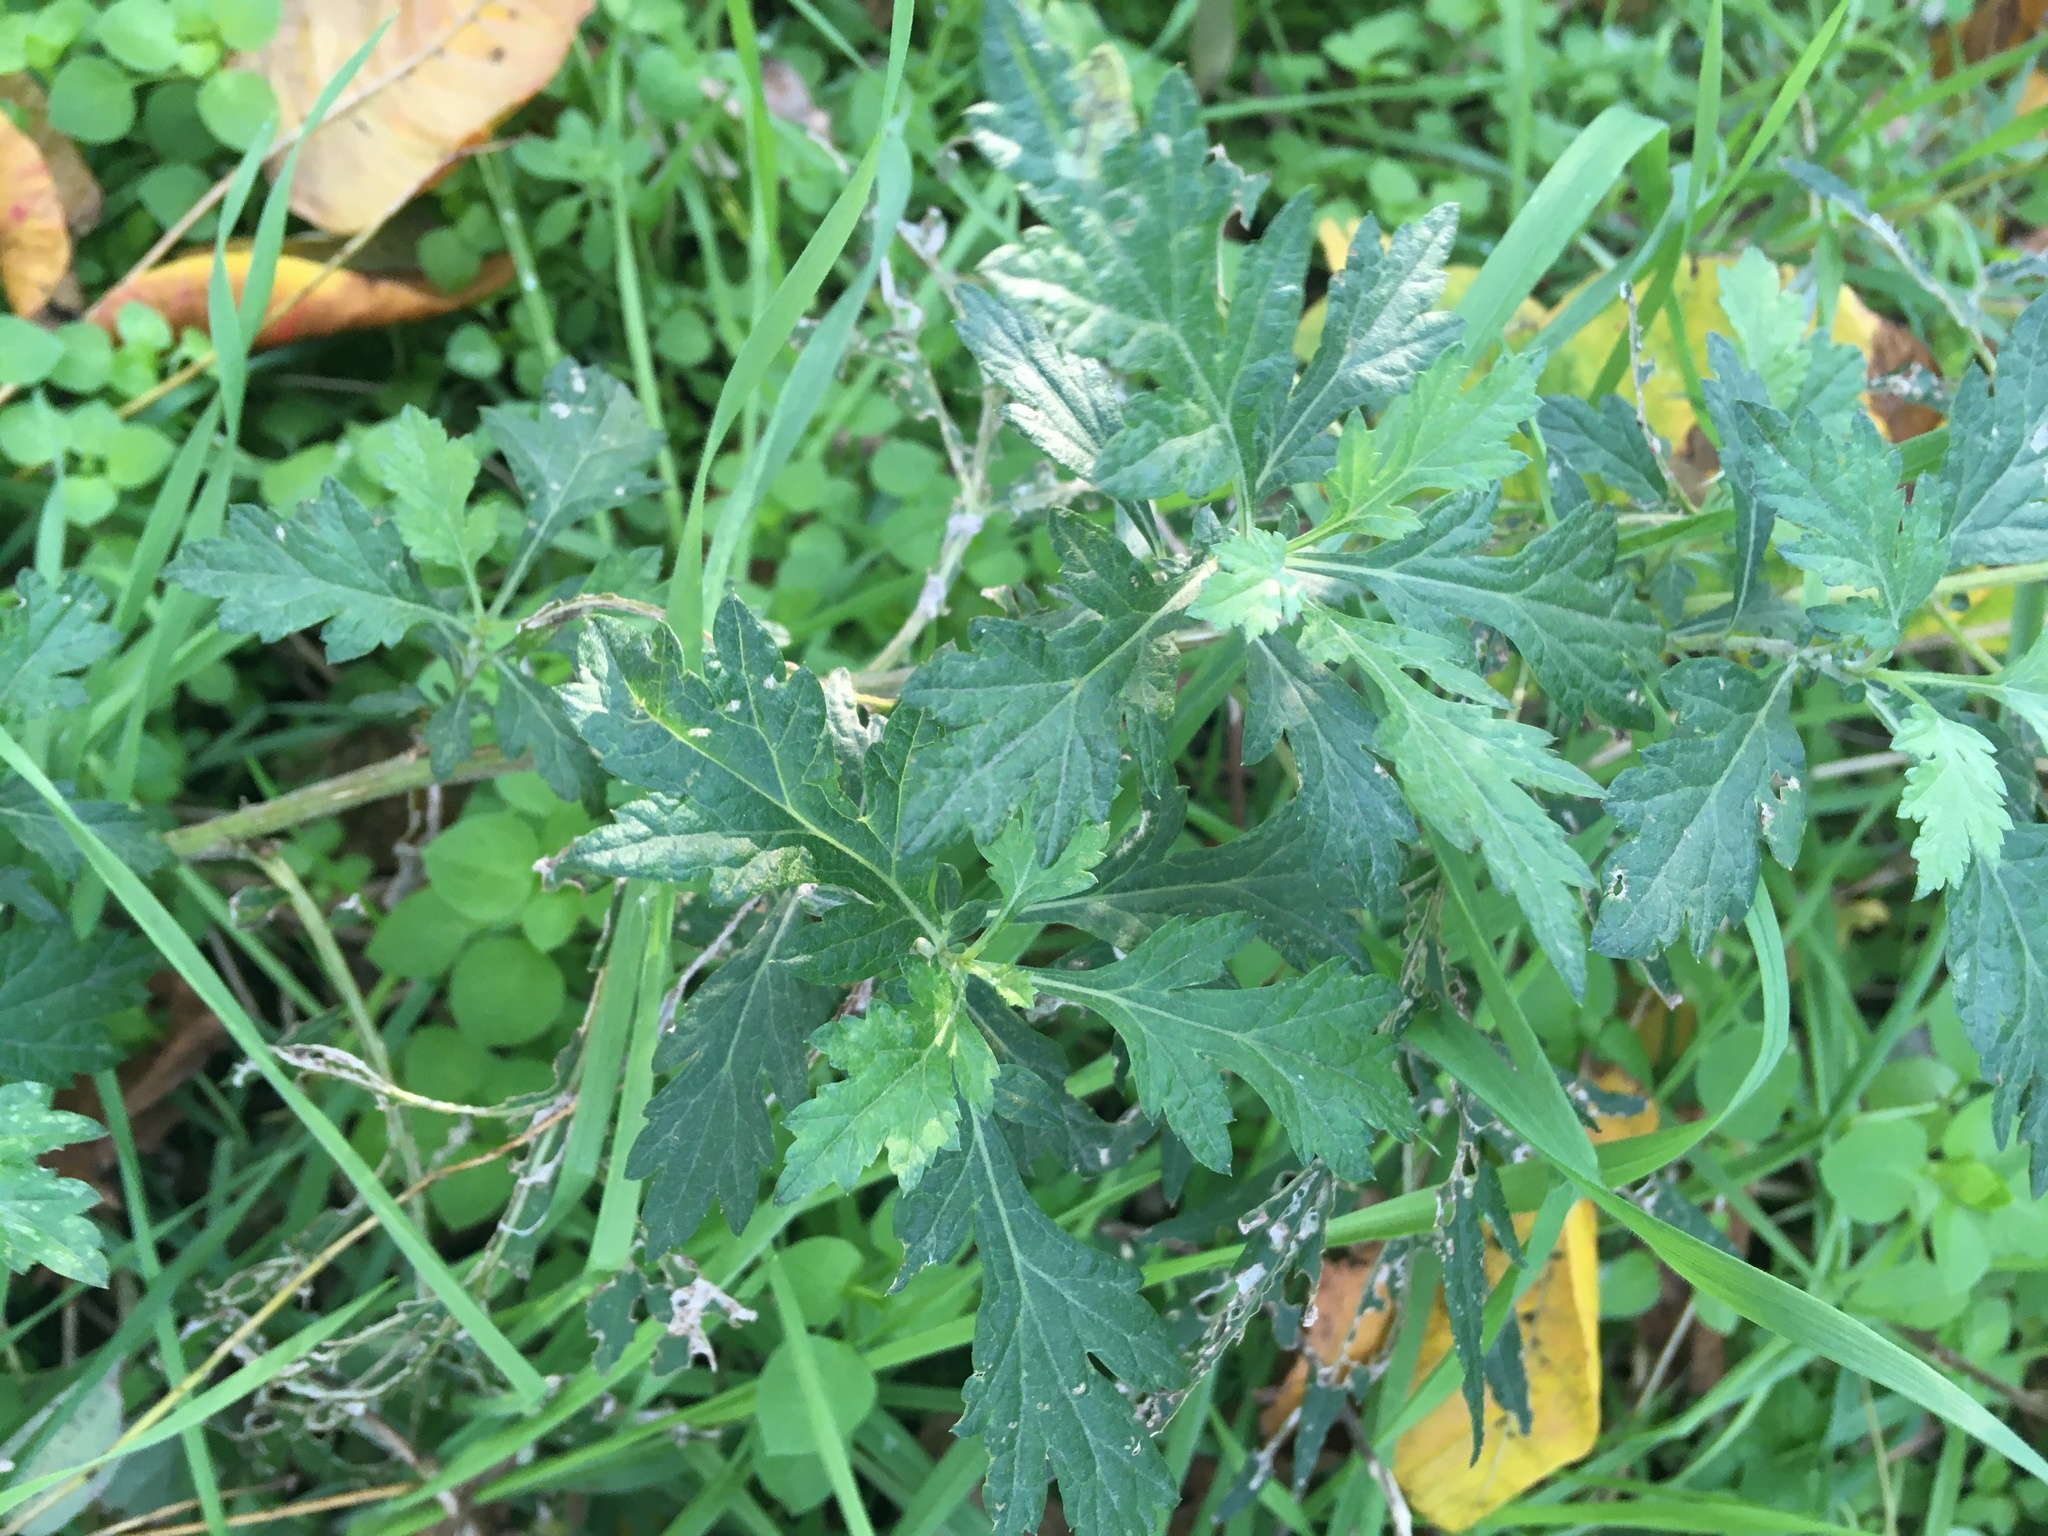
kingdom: Plantae
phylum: Tracheophyta
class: Magnoliopsida
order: Asterales
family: Asteraceae
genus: Artemisia
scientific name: Artemisia vulgaris
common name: Mugwort
